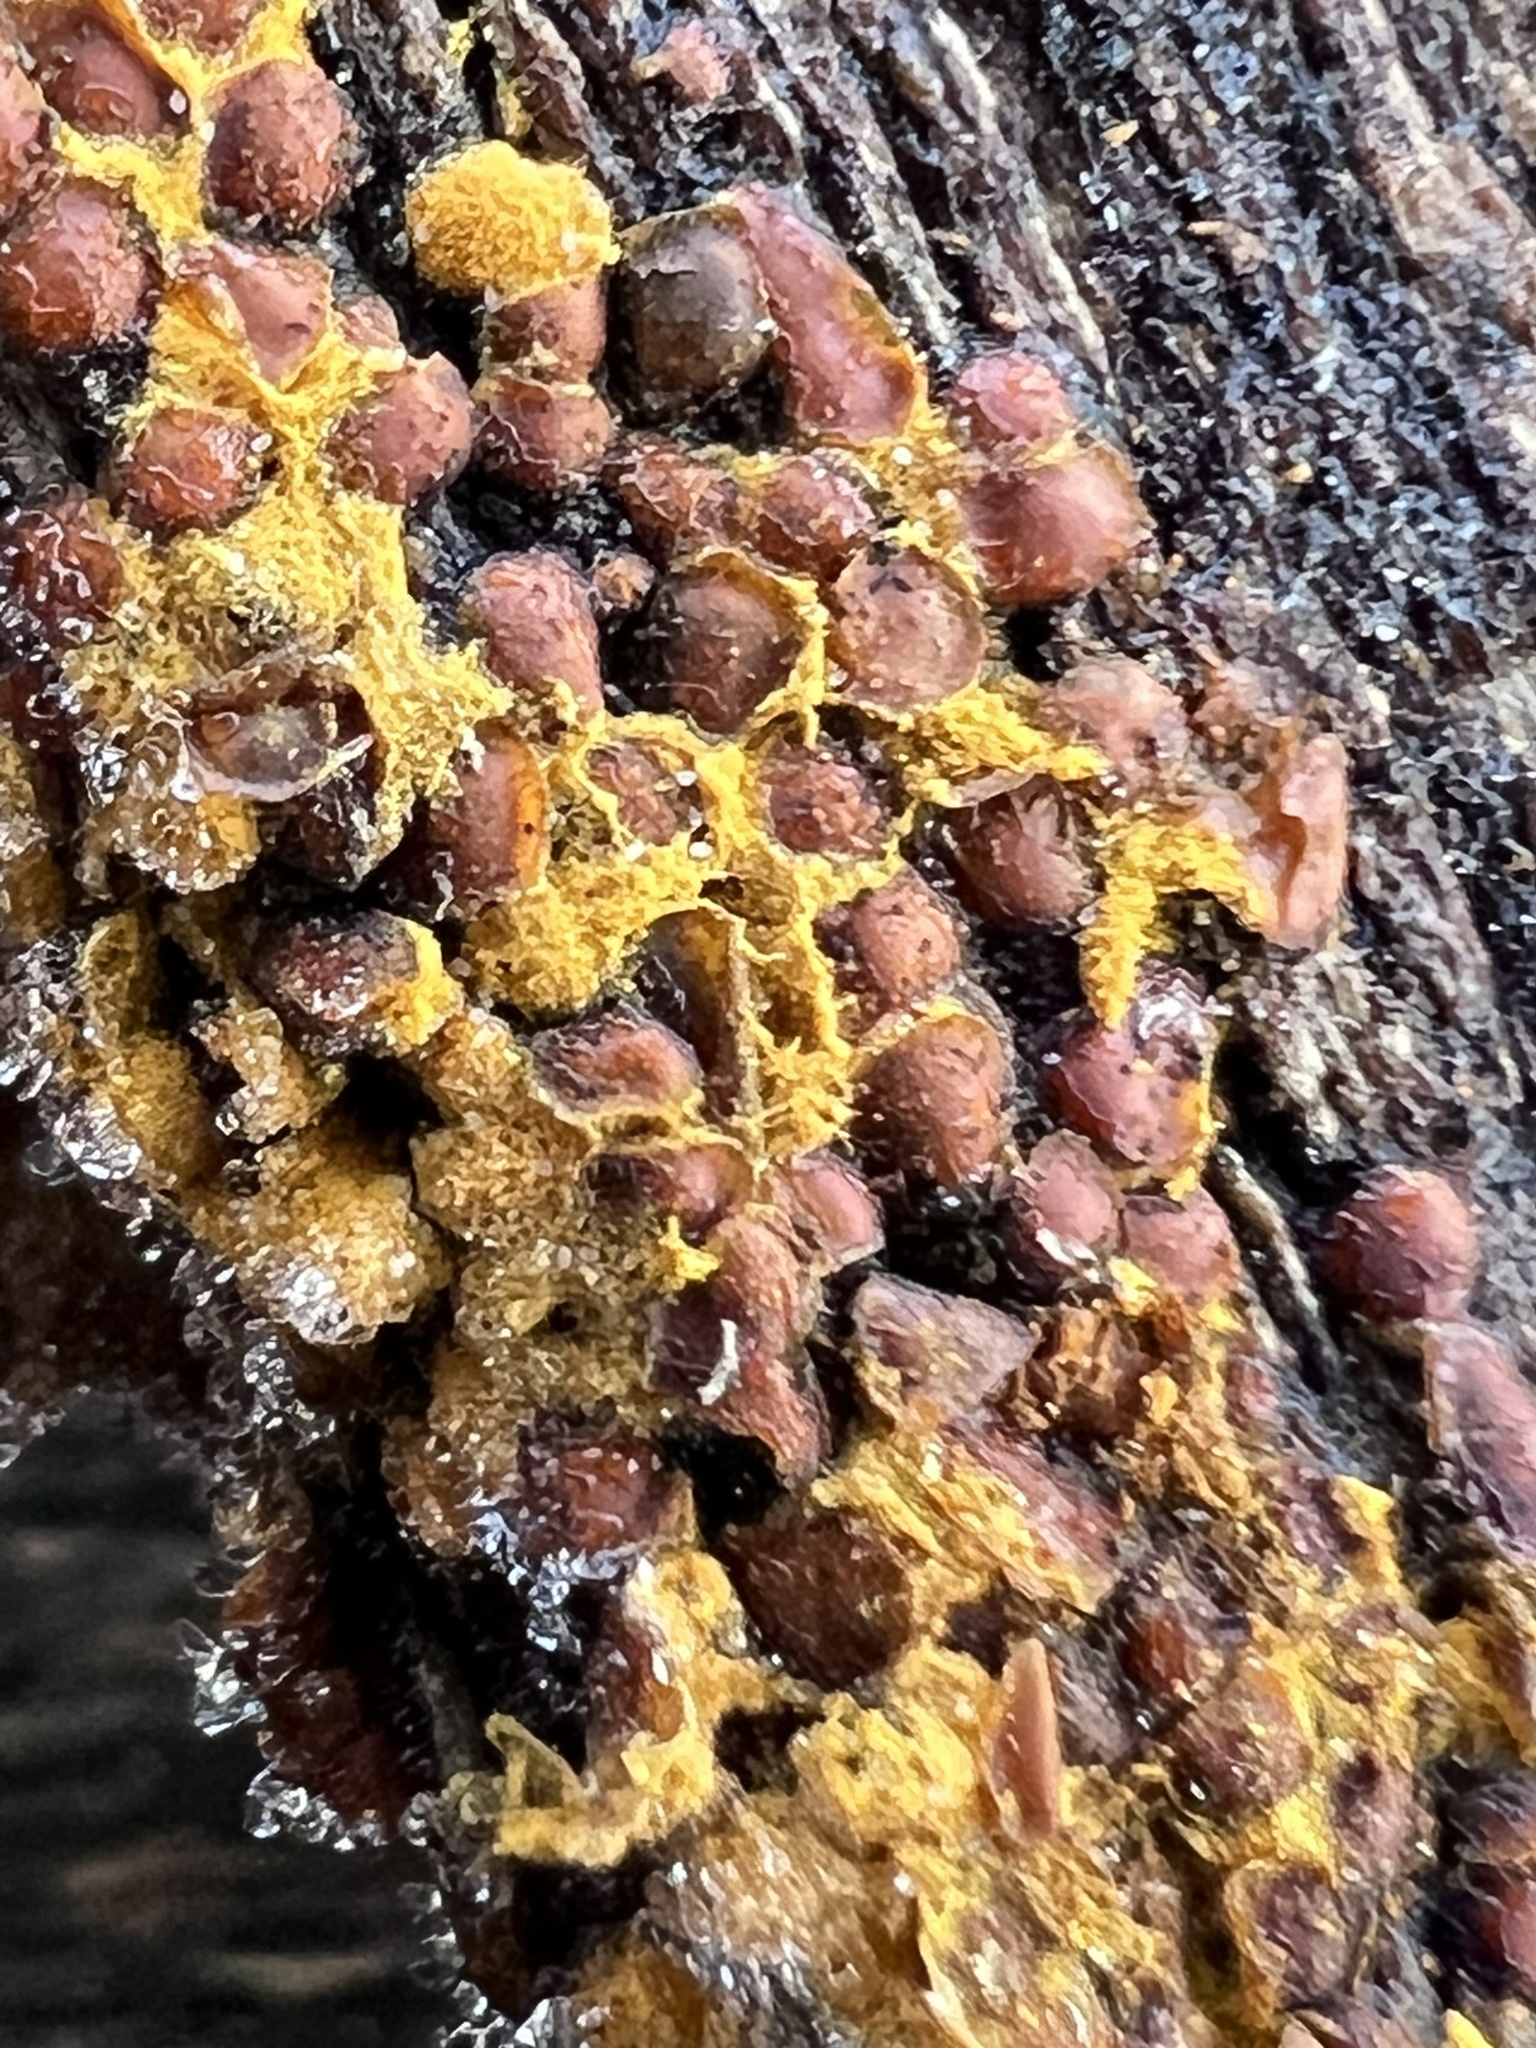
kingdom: Protozoa
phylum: Mycetozoa
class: Myxomycetes
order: Trichiales
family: Trichiaceae
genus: Perichaena
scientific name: Perichaena depressa
